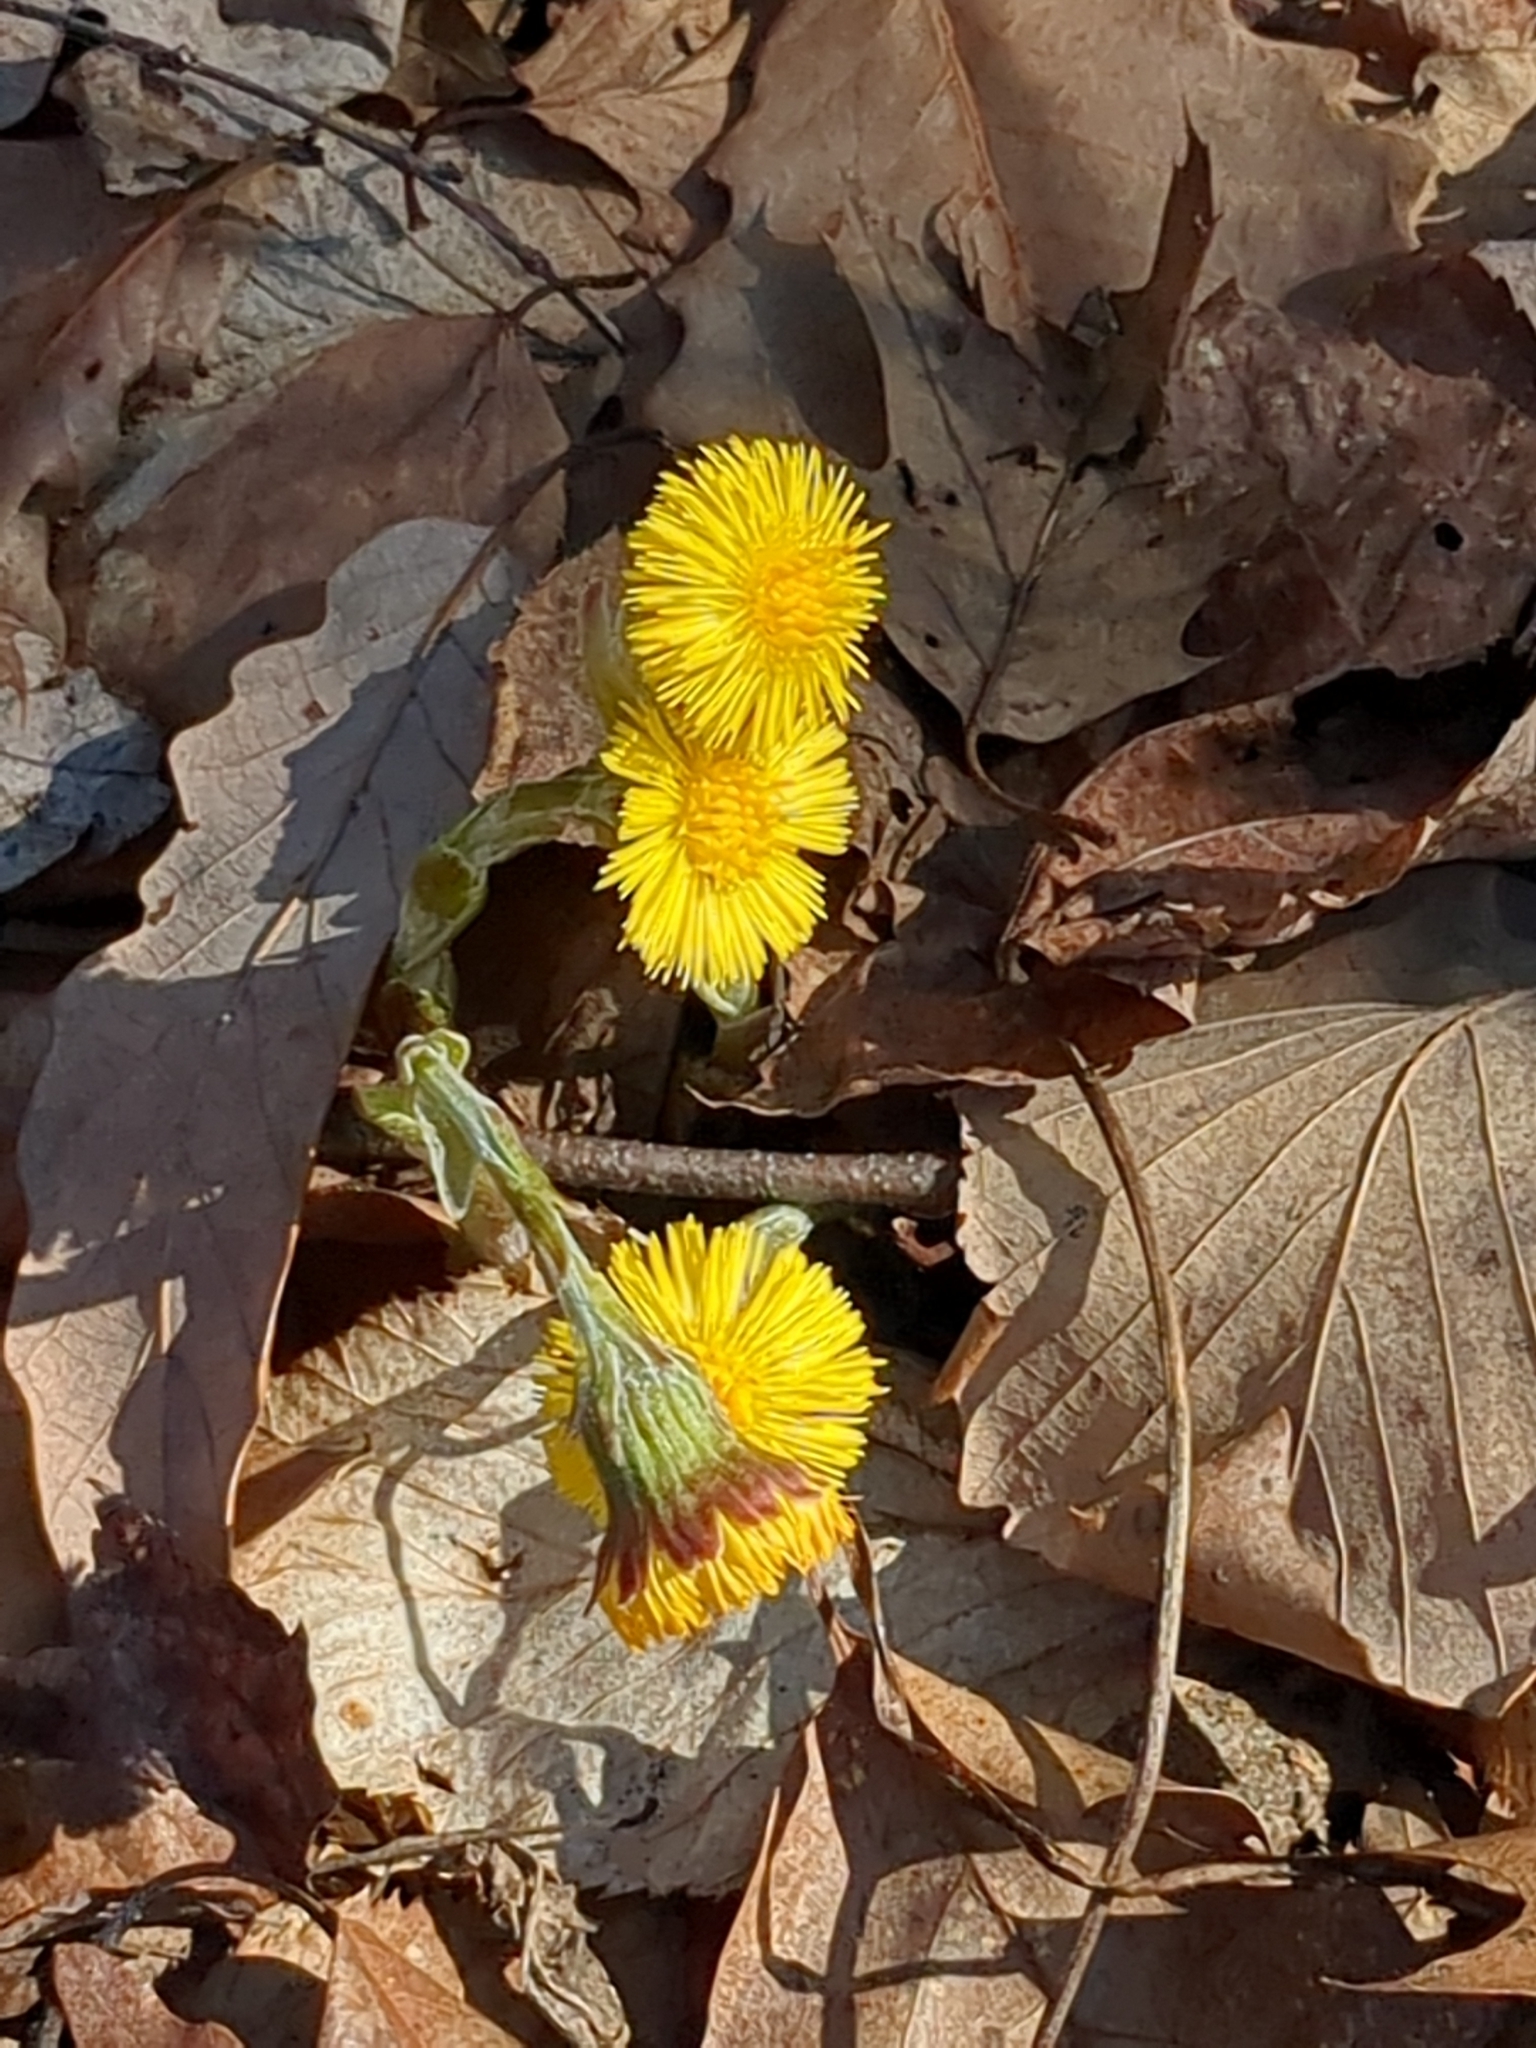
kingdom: Plantae
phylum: Tracheophyta
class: Magnoliopsida
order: Asterales
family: Asteraceae
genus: Tussilago
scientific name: Tussilago farfara
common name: Coltsfoot
